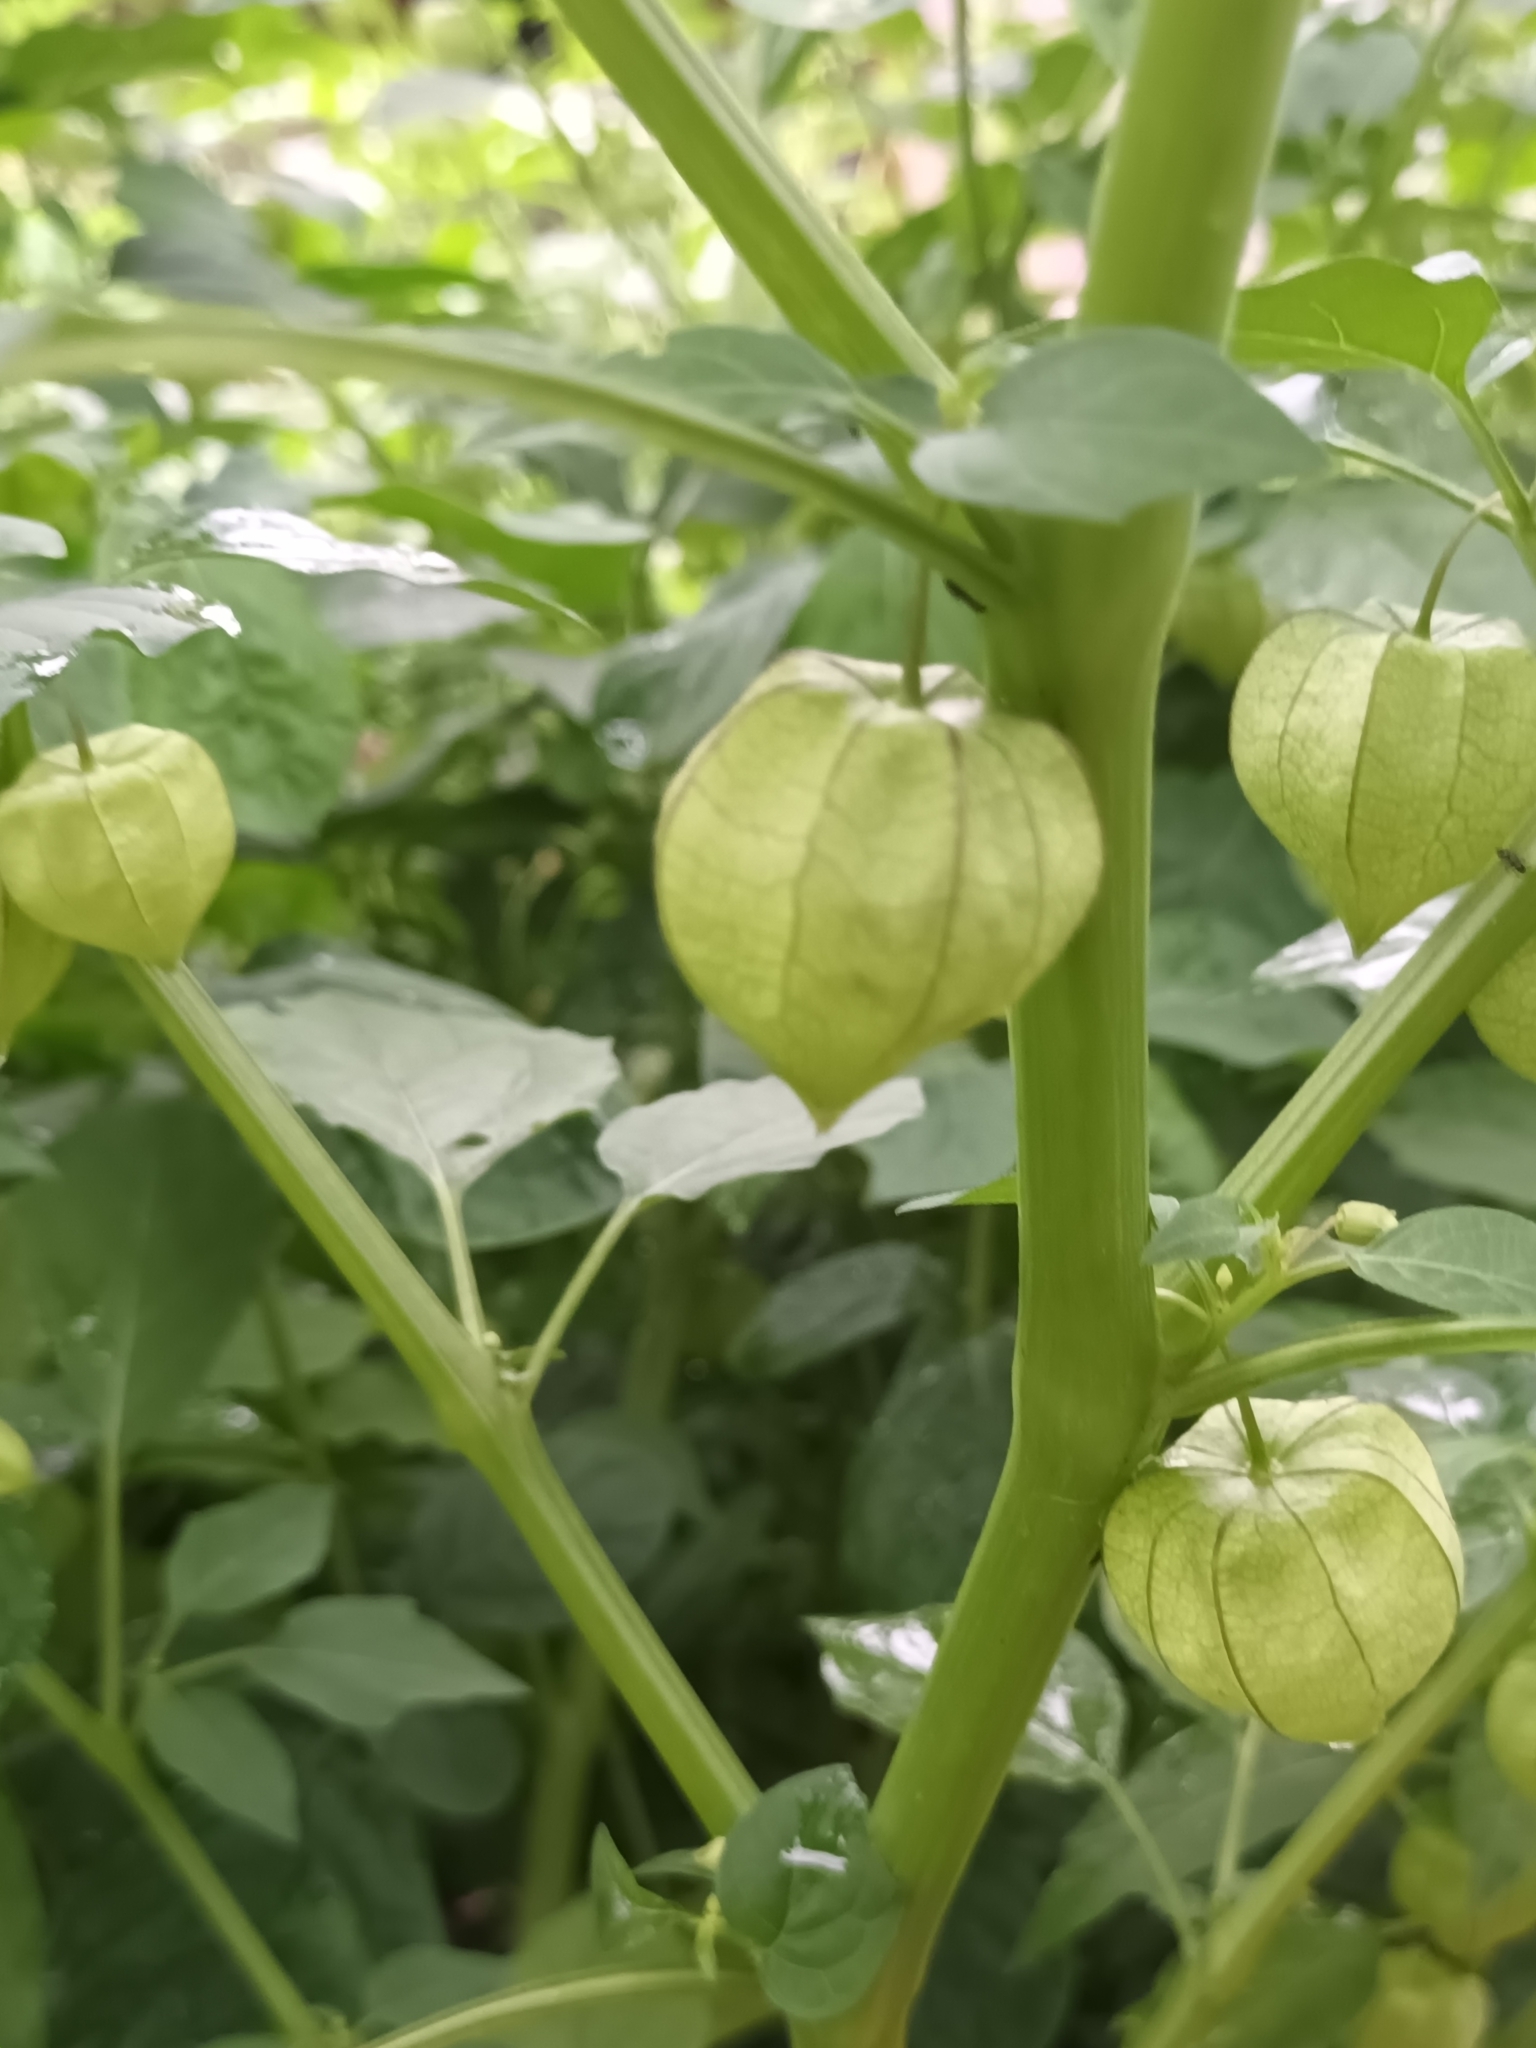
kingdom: Plantae
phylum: Tracheophyta
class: Magnoliopsida
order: Solanales
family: Solanaceae
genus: Physalis
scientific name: Physalis angulata
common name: Angular winter-cherry
